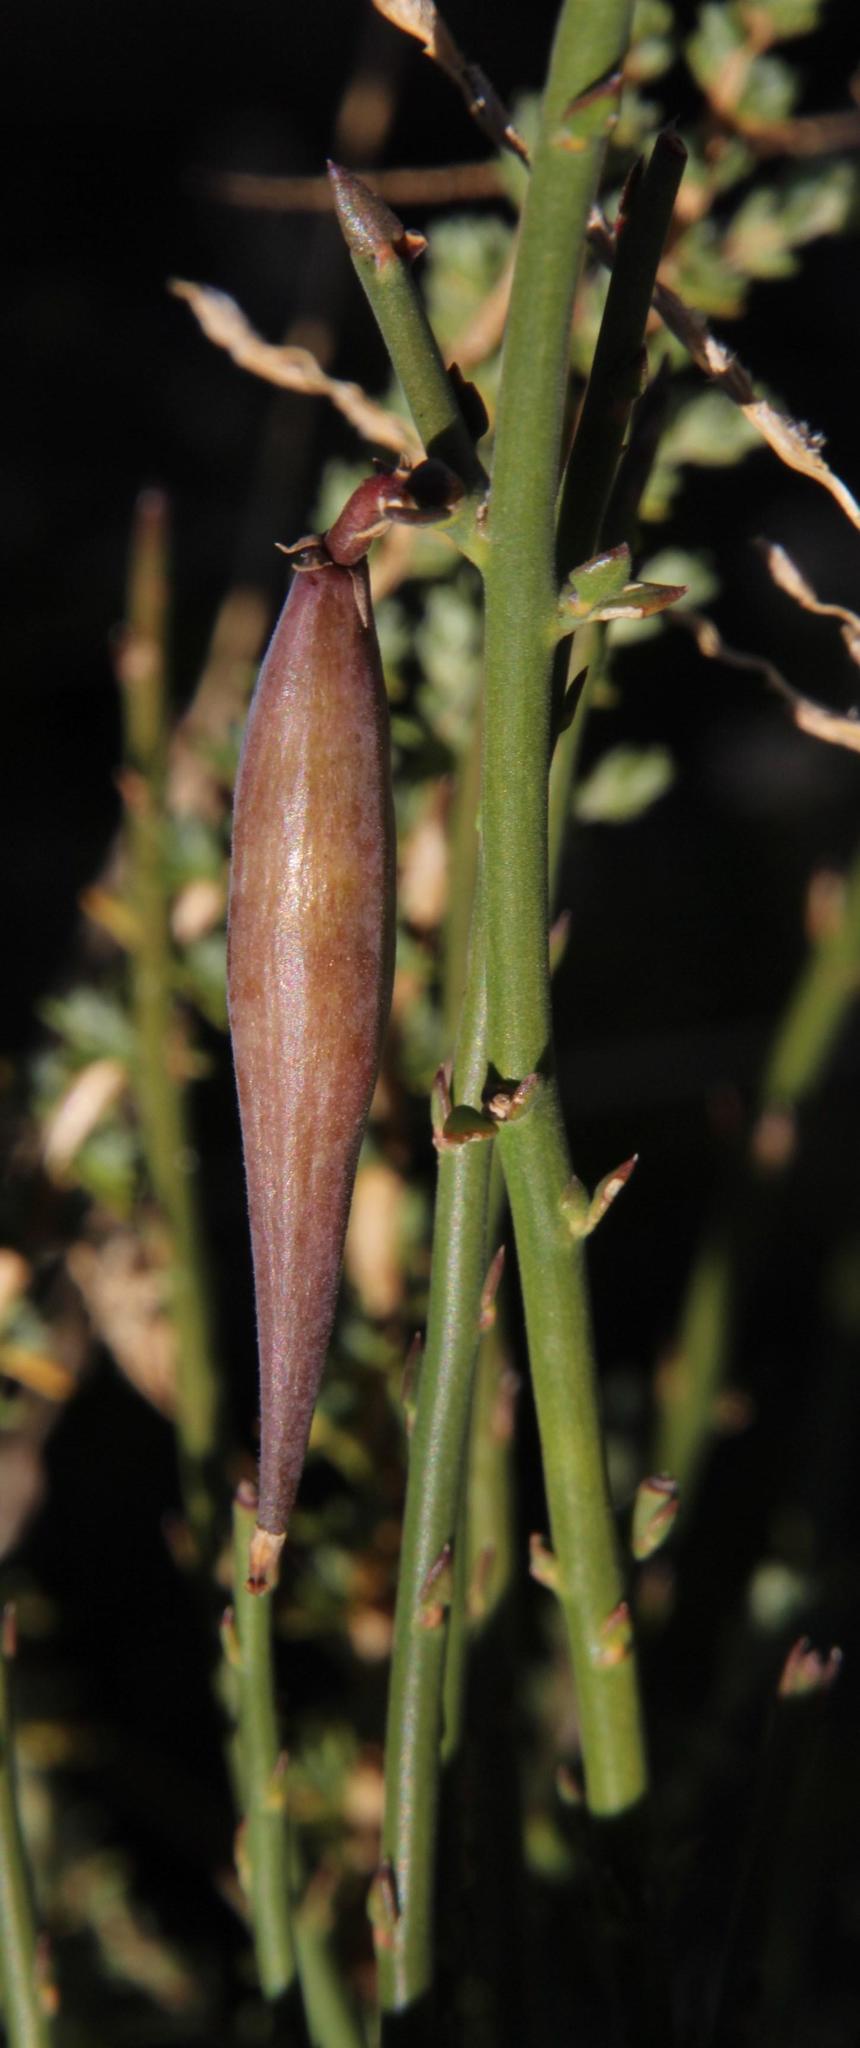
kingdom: Plantae
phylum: Tracheophyta
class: Magnoliopsida
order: Gentianales
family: Apocynaceae
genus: Cynanchum
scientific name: Cynanchum viminale
